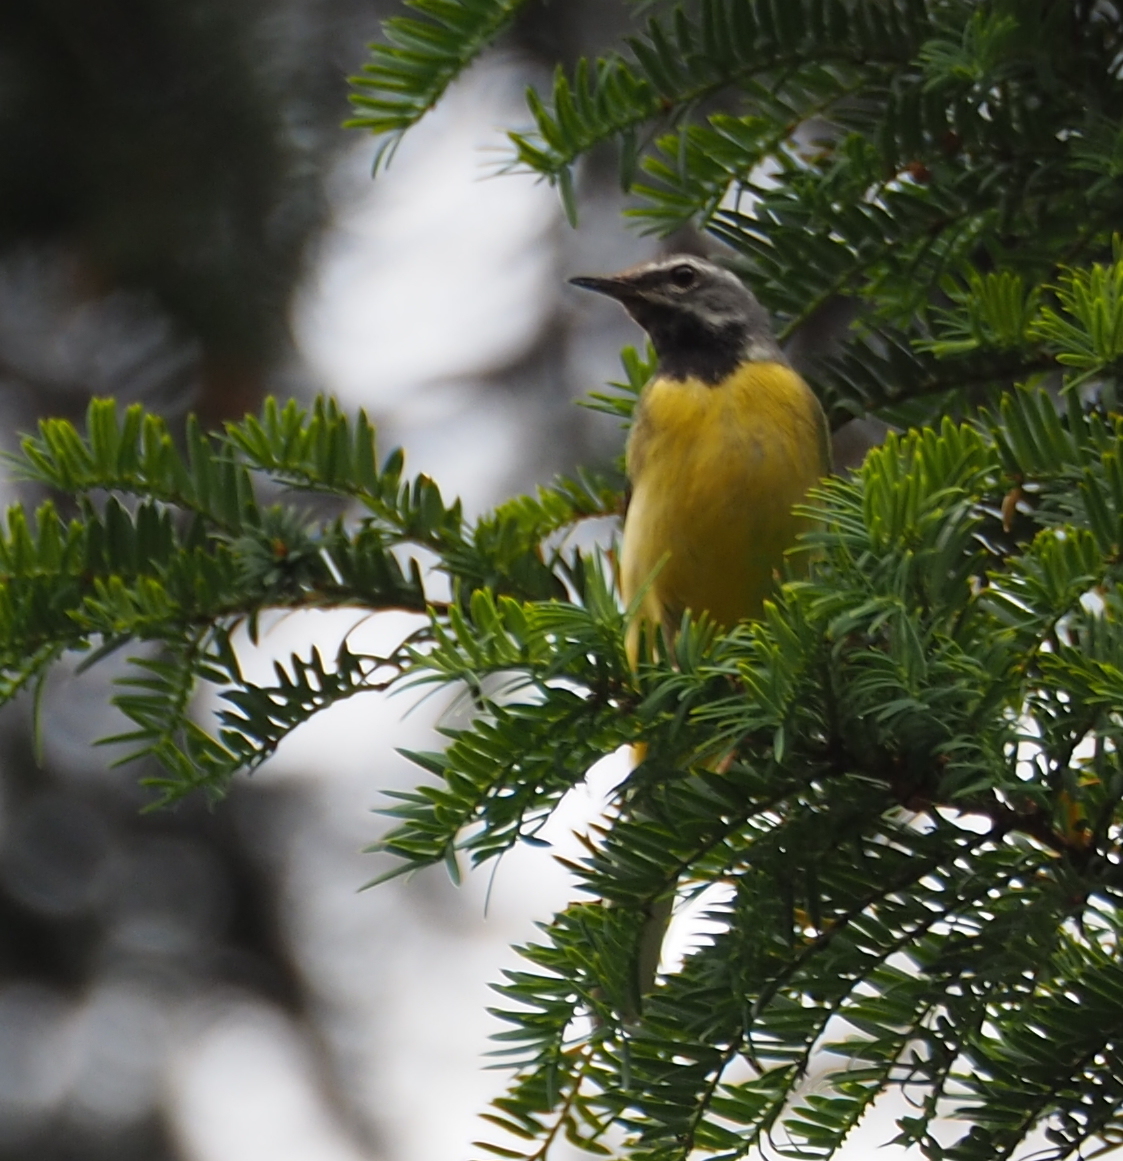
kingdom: Animalia
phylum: Chordata
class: Aves
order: Passeriformes
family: Motacillidae
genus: Motacilla
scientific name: Motacilla cinerea
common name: Grey wagtail
